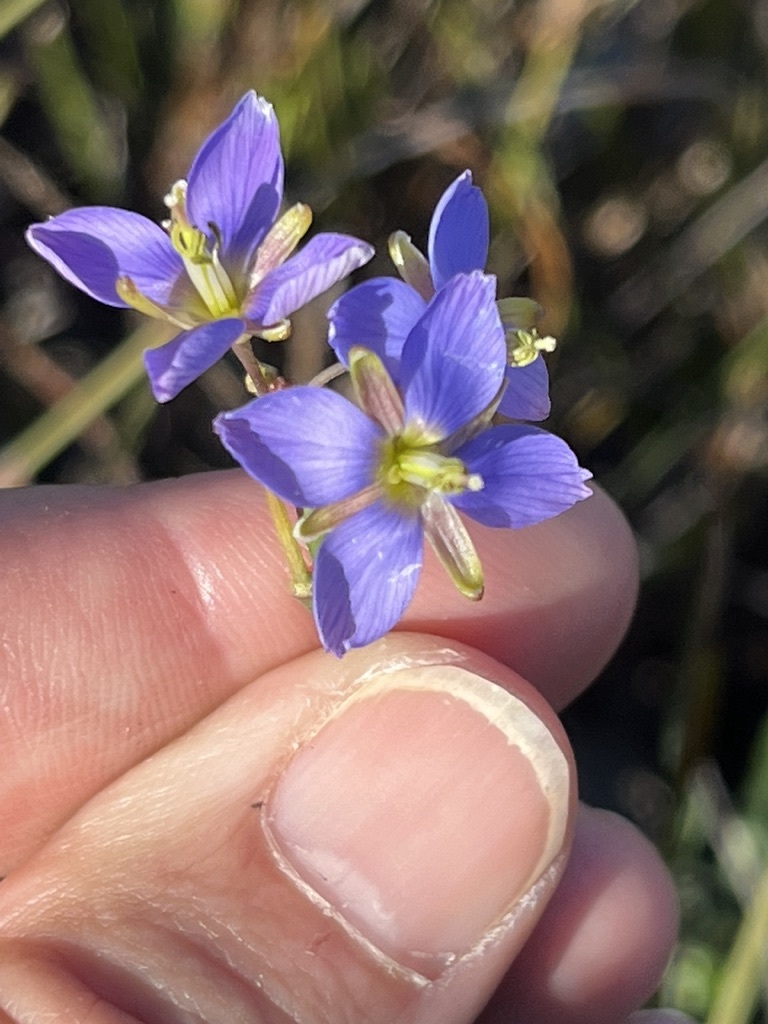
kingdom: Plantae
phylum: Tracheophyta
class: Magnoliopsida
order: Brassicales
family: Brassicaceae
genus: Heliophila
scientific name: Heliophila linearis
